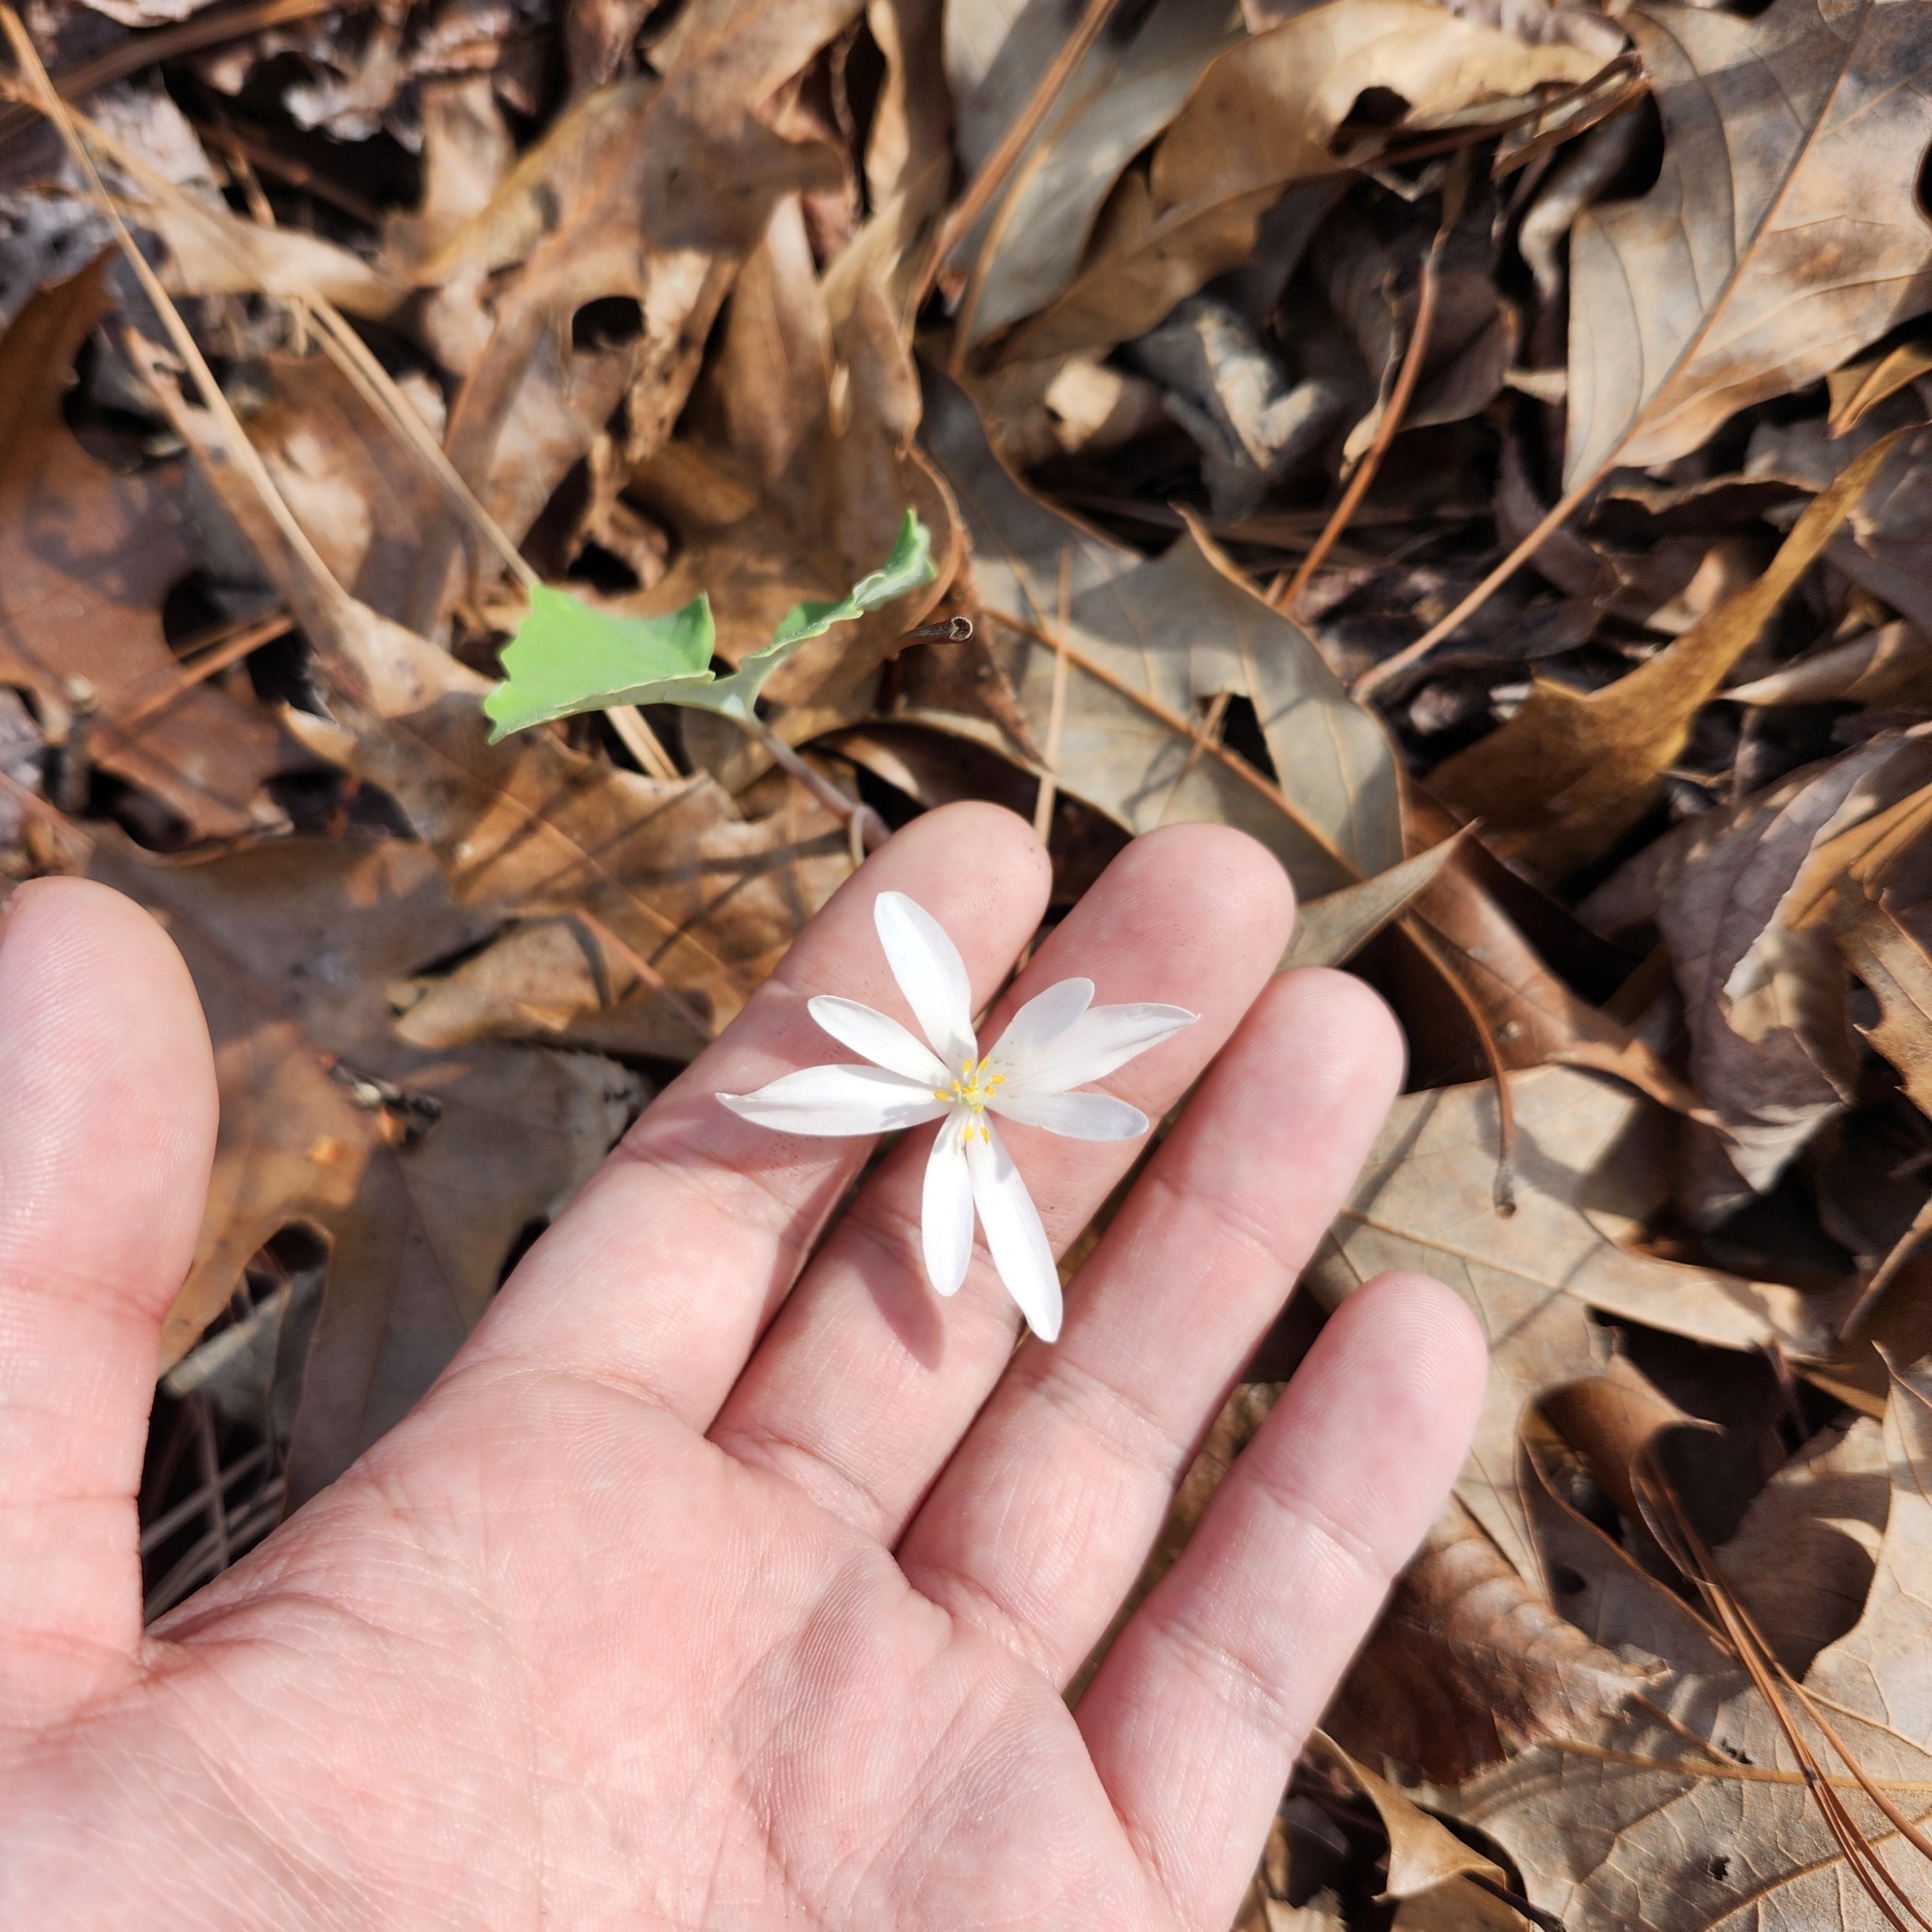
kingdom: Plantae
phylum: Tracheophyta
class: Magnoliopsida
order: Ranunculales
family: Papaveraceae
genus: Sanguinaria
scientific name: Sanguinaria canadensis
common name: Bloodroot
